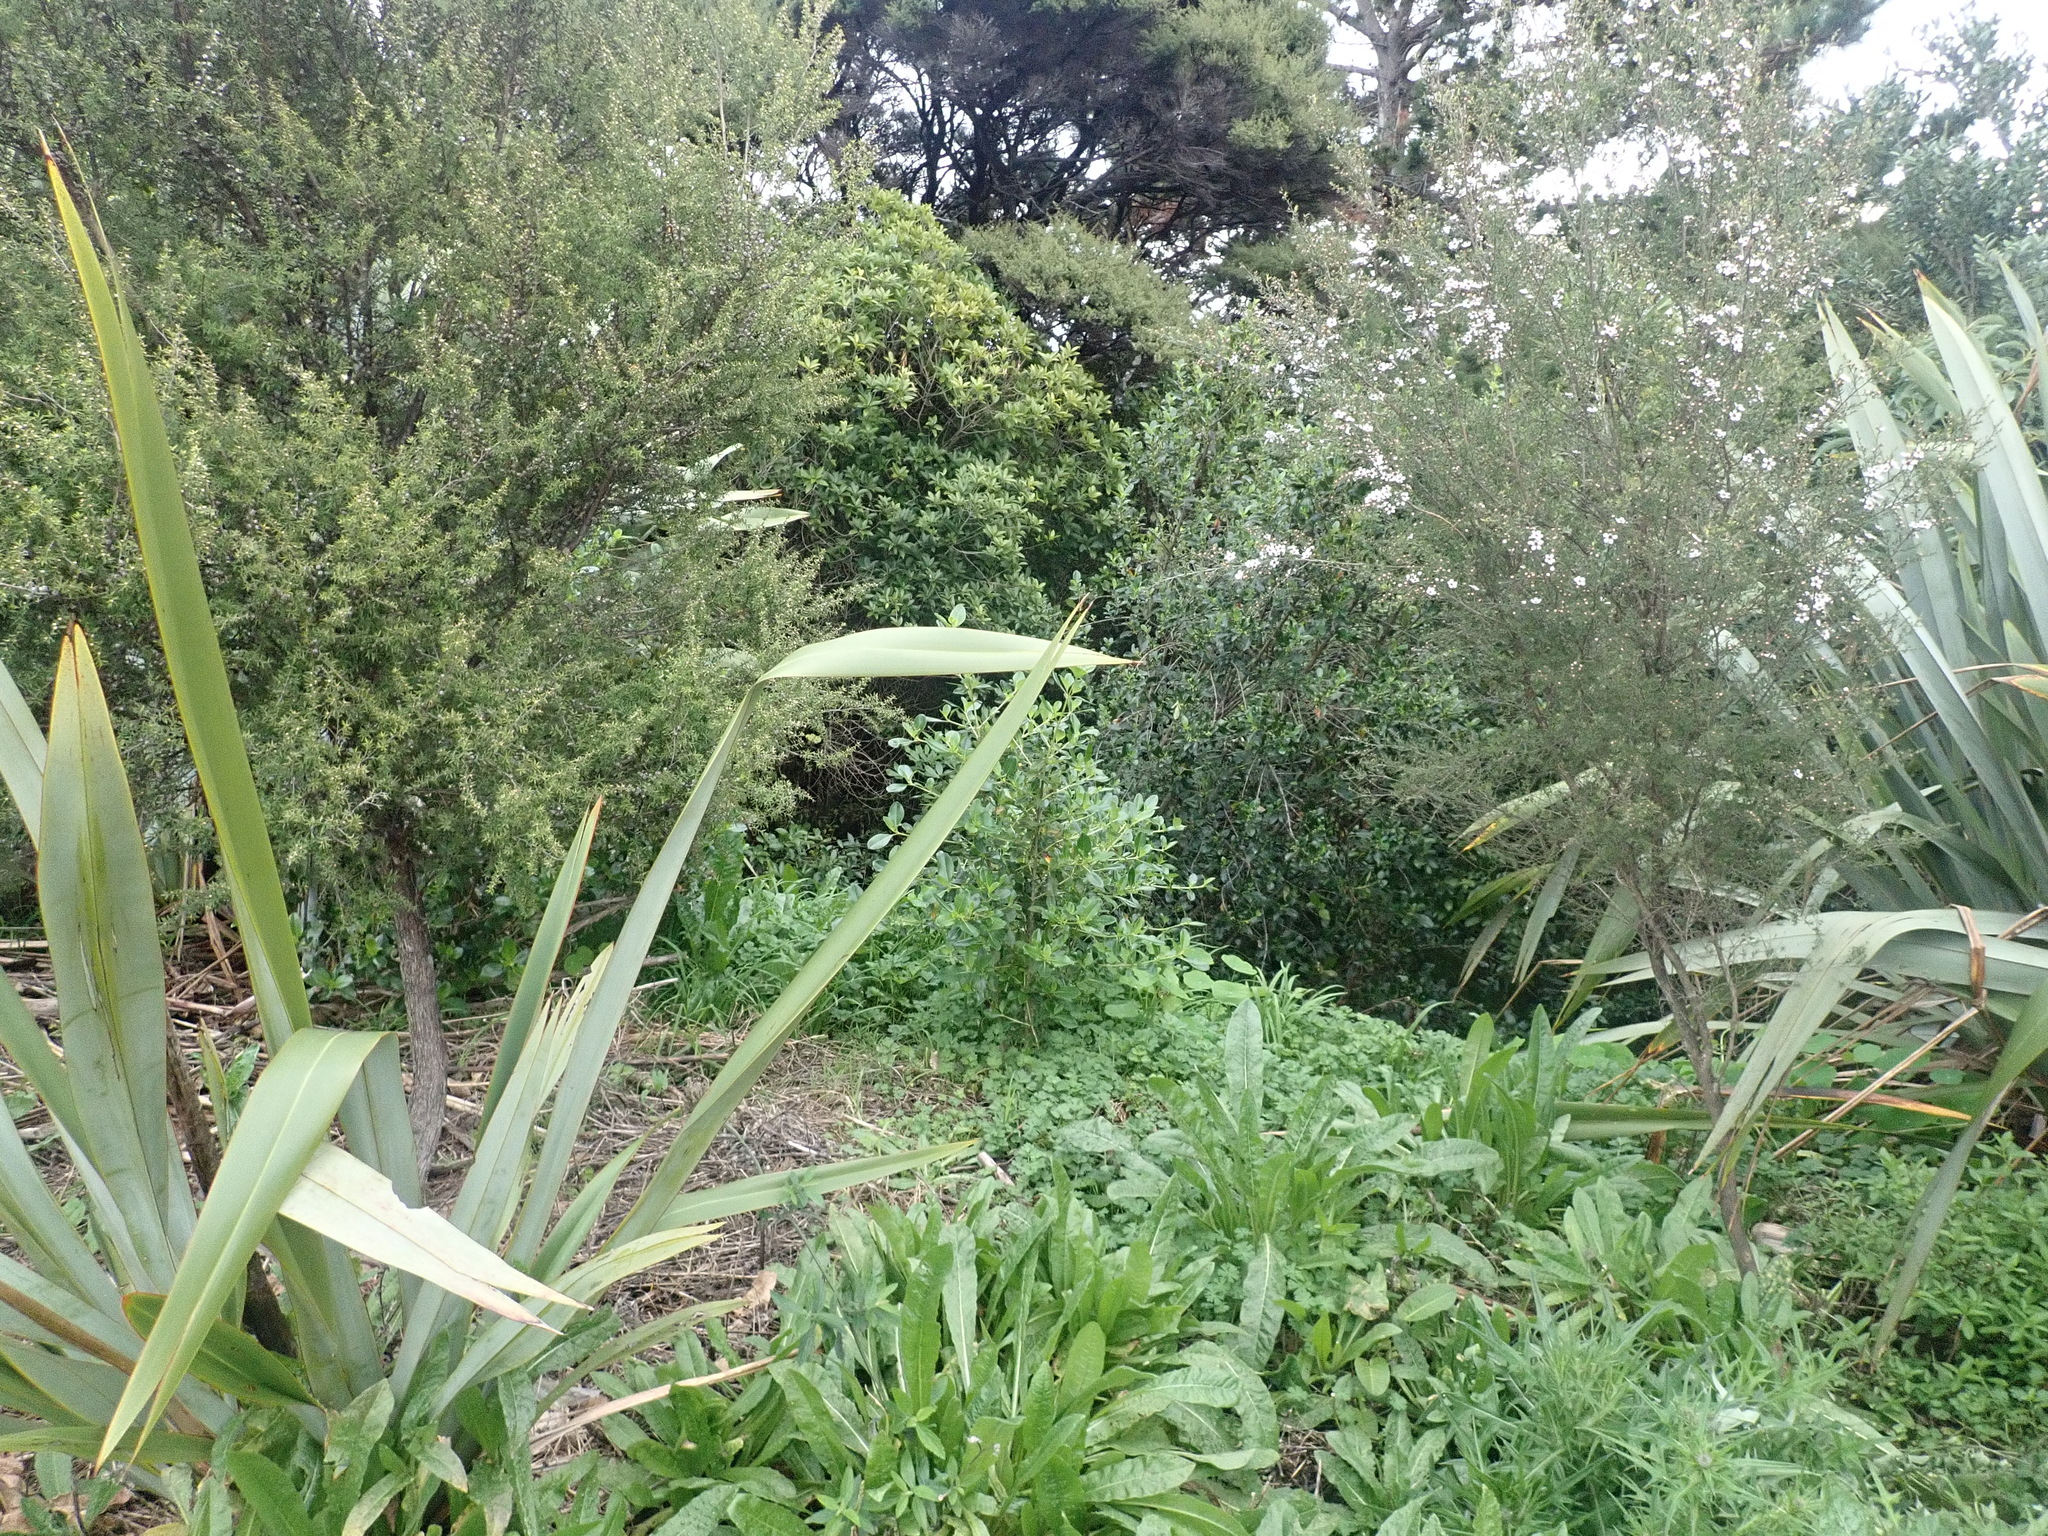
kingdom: Plantae
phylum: Tracheophyta
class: Magnoliopsida
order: Gentianales
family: Rubiaceae
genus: Coprosma
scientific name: Coprosma robusta
